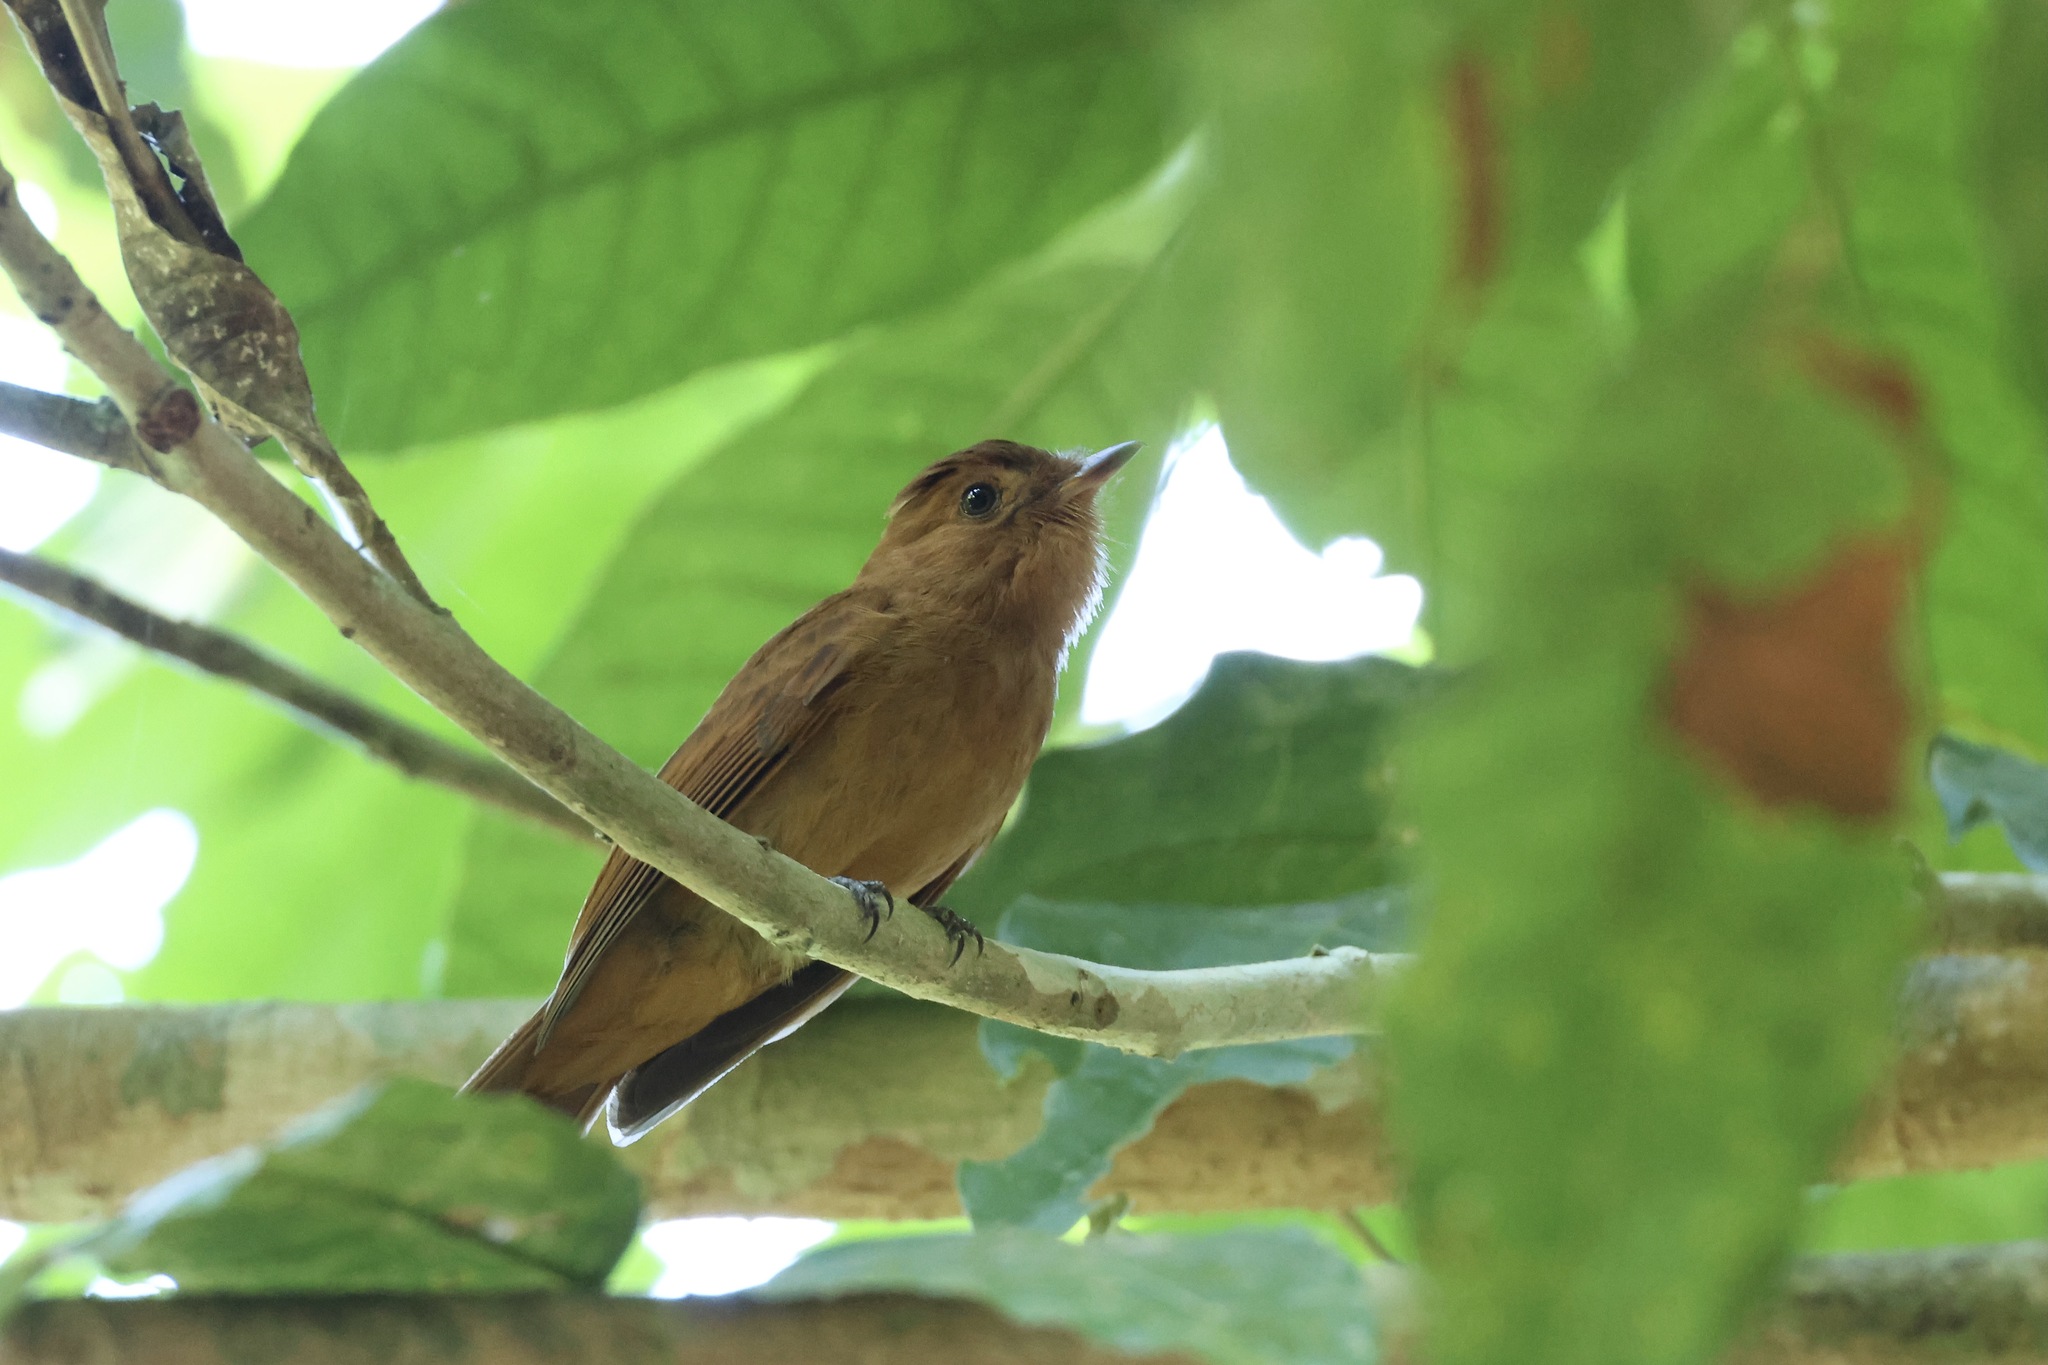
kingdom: Animalia
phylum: Chordata
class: Aves
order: Passeriformes
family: Tyrannidae
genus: Rhytipterna
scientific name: Rhytipterna holerythra
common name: Rufous mourner
